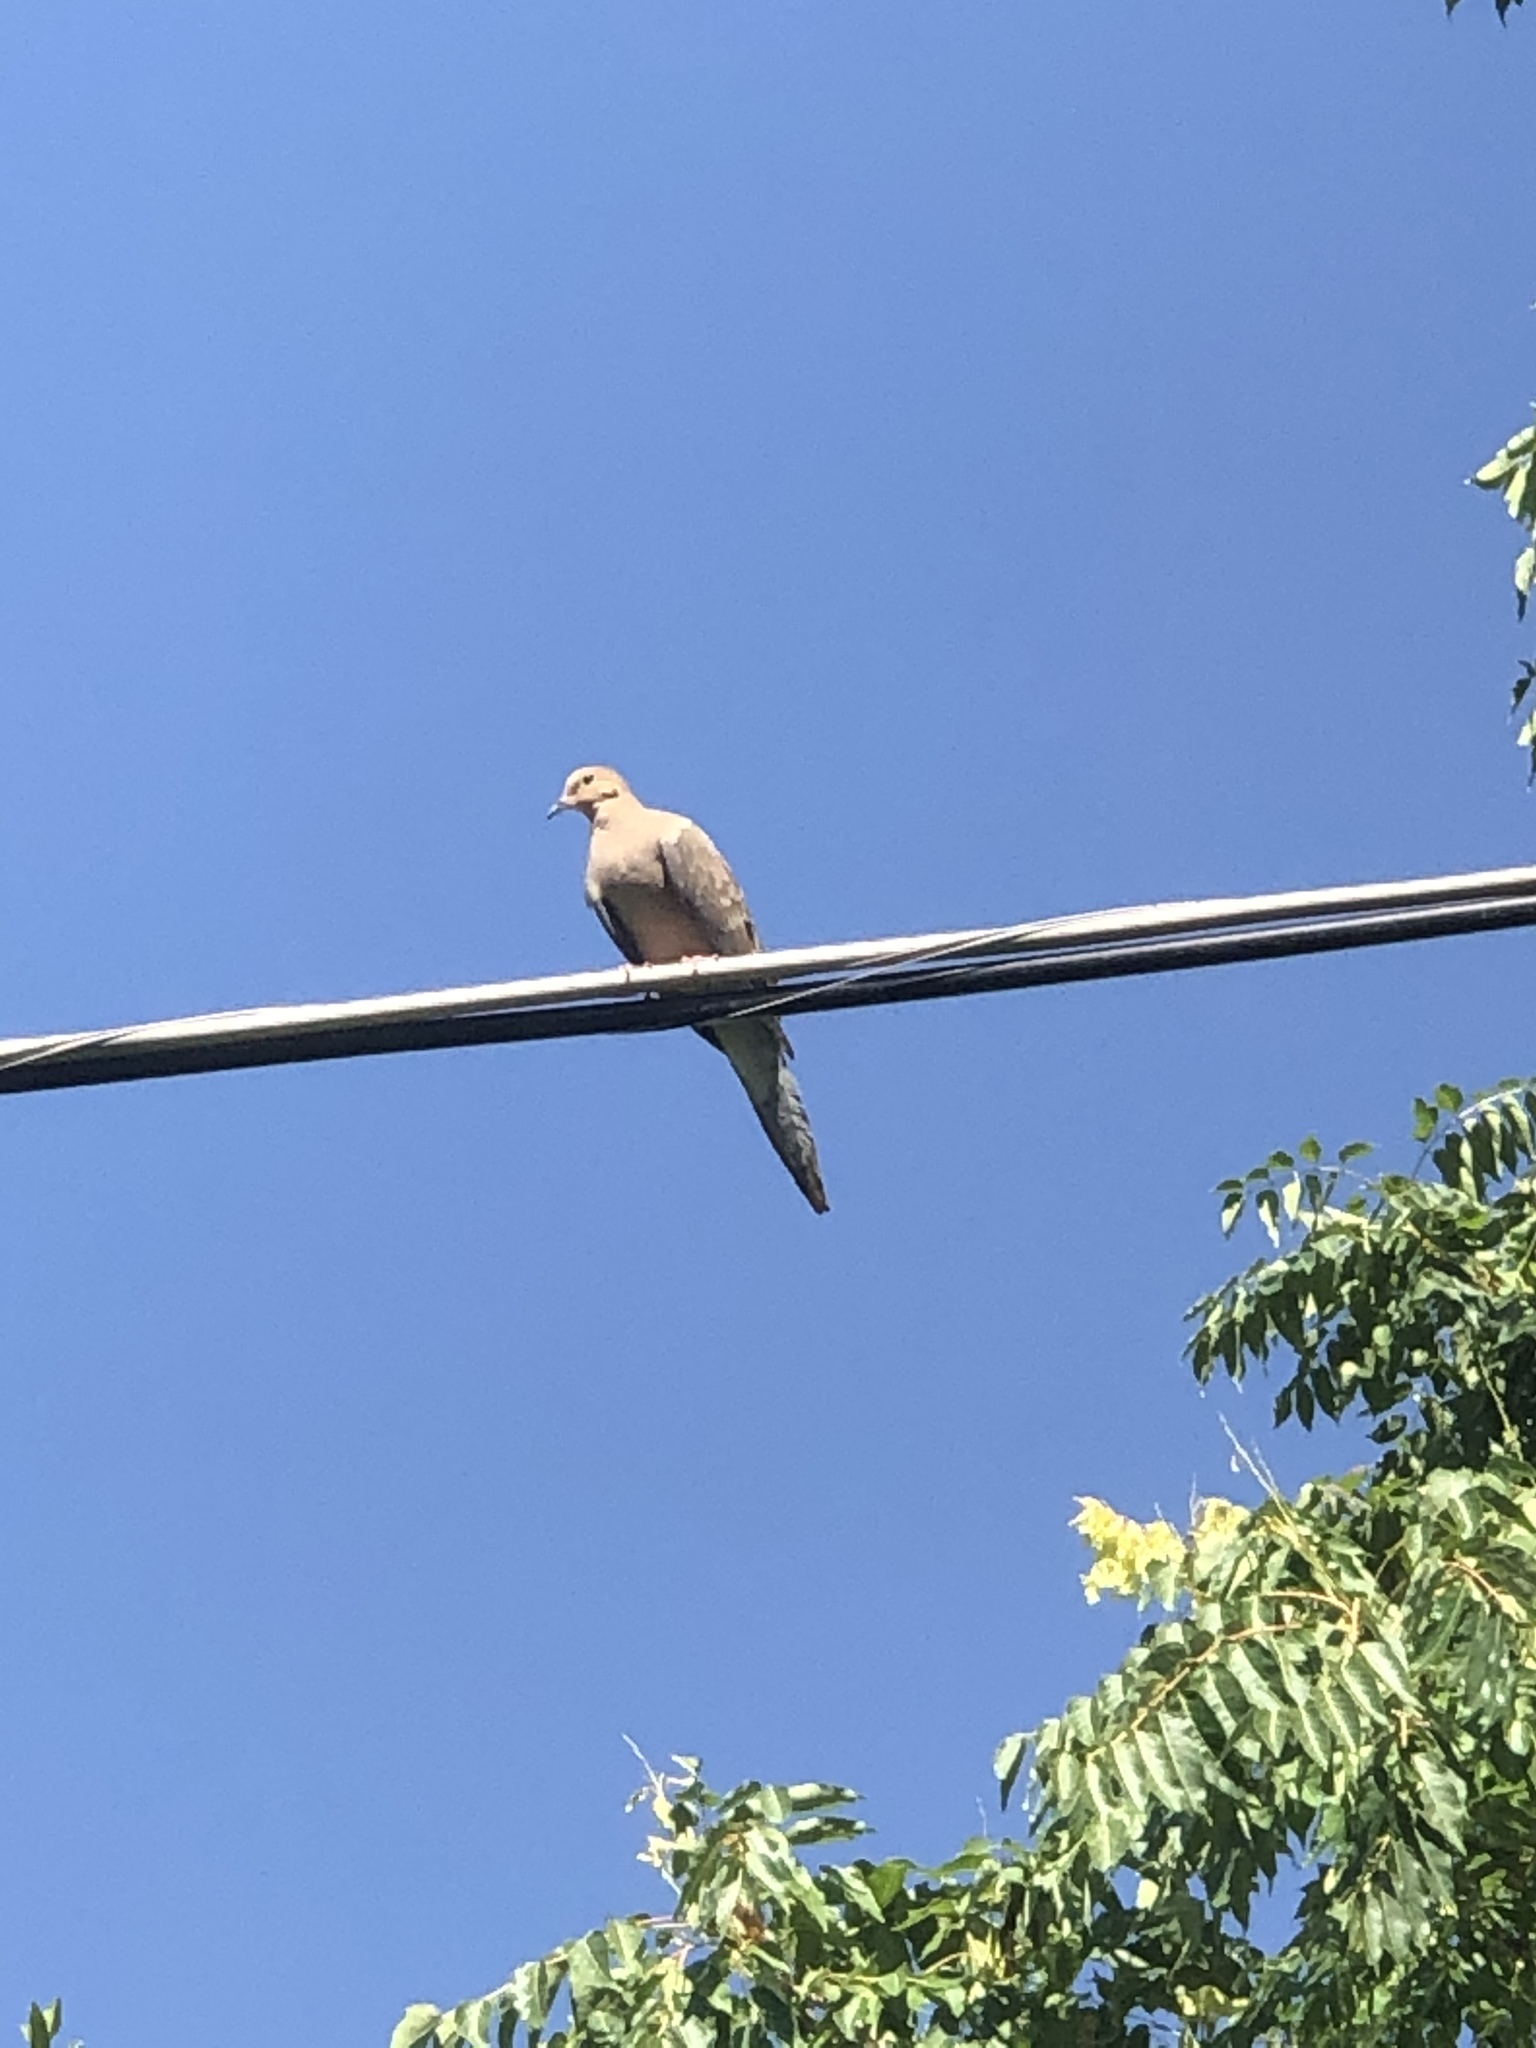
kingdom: Animalia
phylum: Chordata
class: Aves
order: Columbiformes
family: Columbidae
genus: Zenaida
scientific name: Zenaida macroura
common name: Mourning dove
